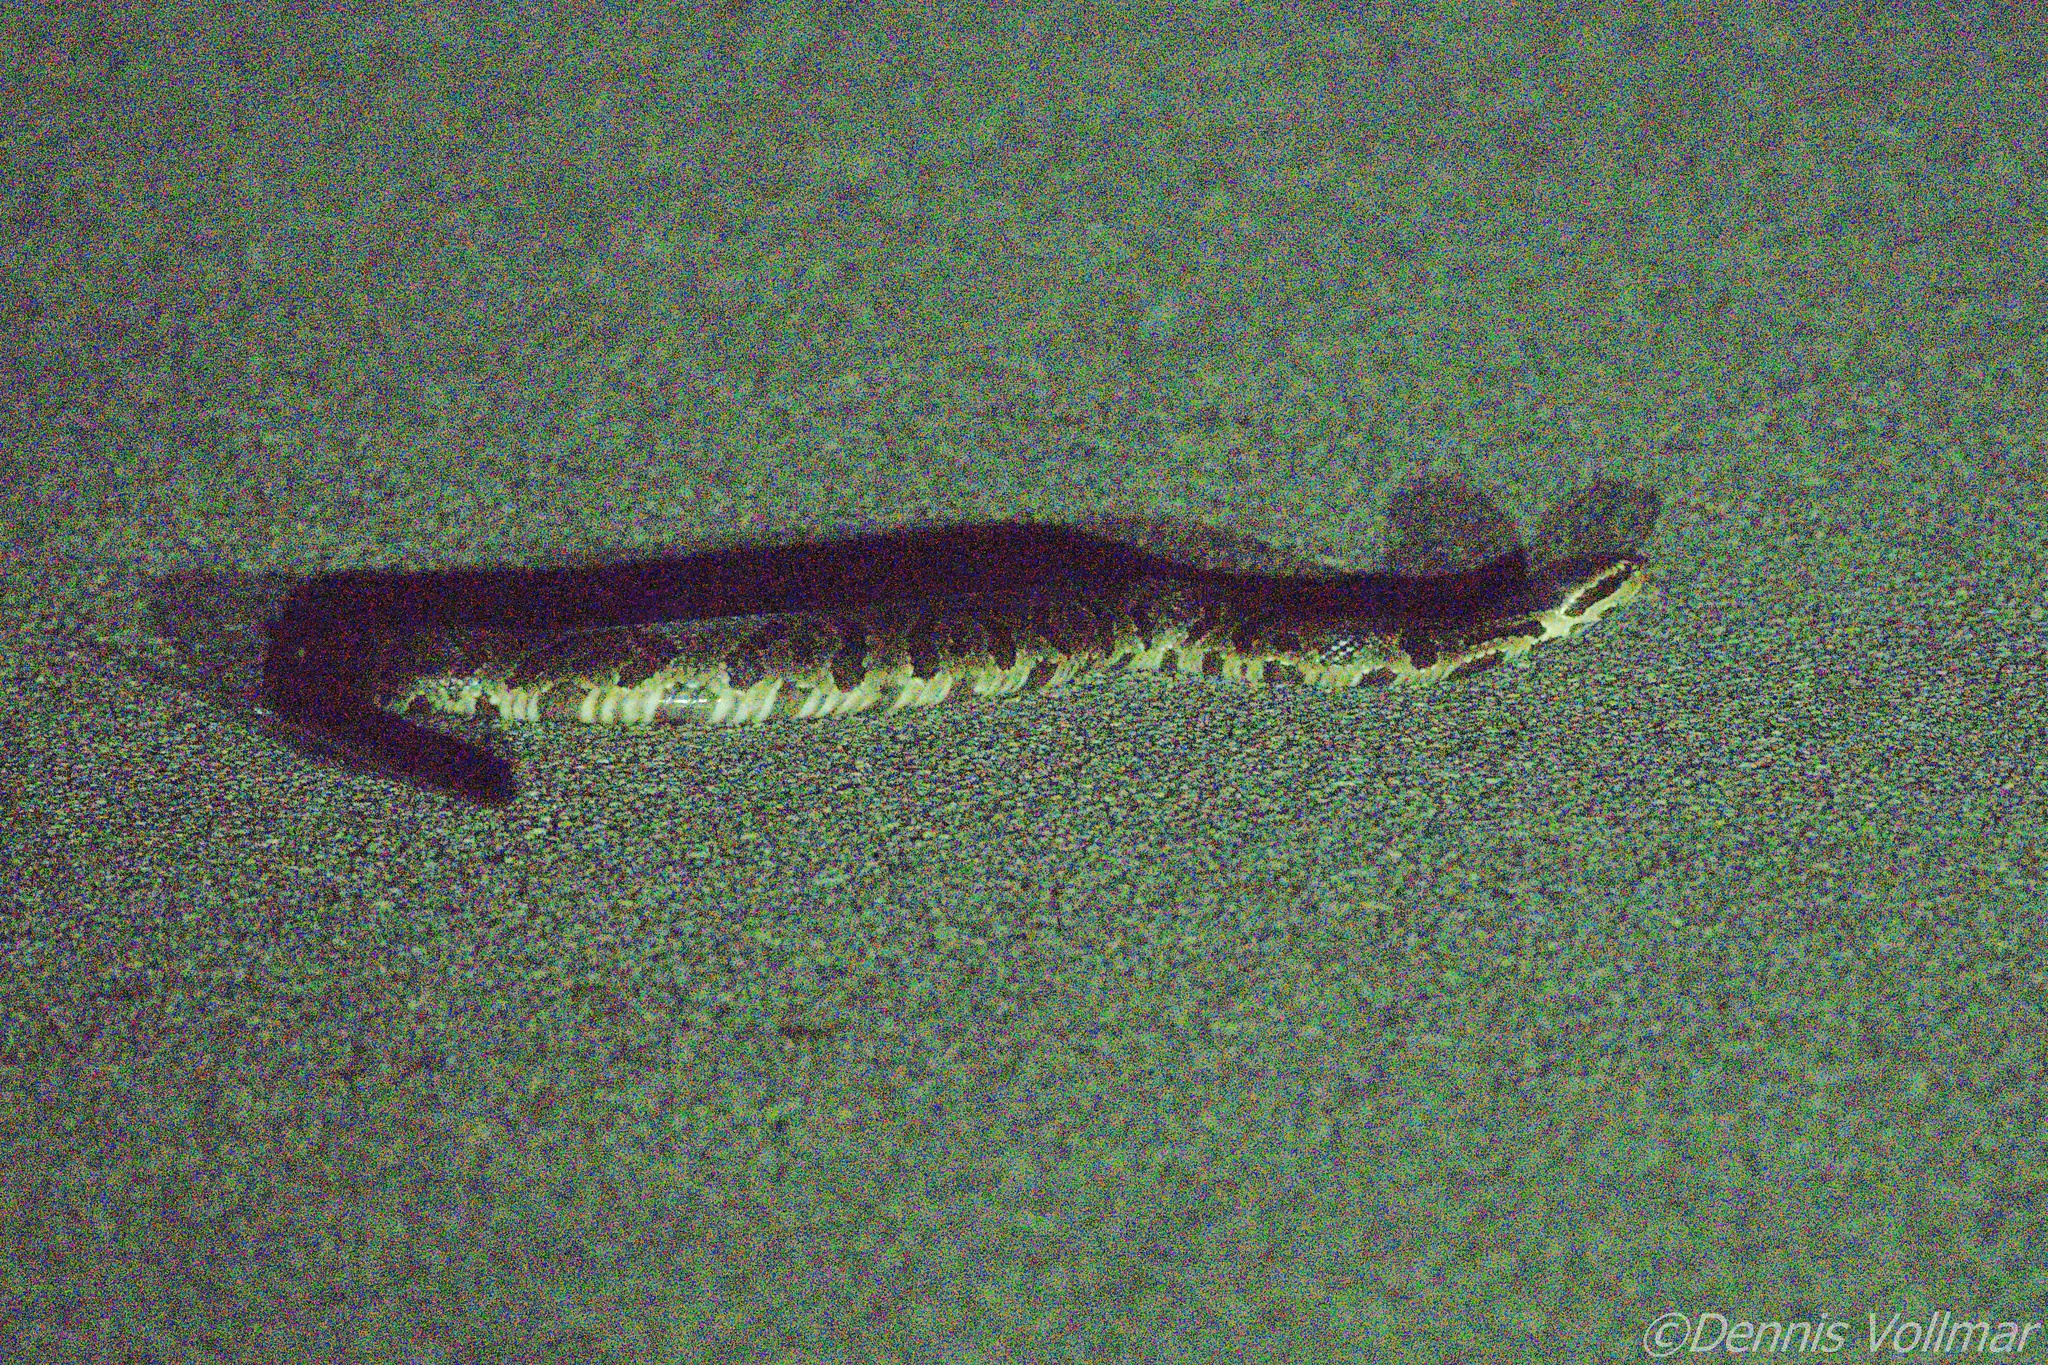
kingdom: Animalia
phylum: Chordata
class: Squamata
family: Viperidae
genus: Agkistrodon
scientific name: Agkistrodon conanti
